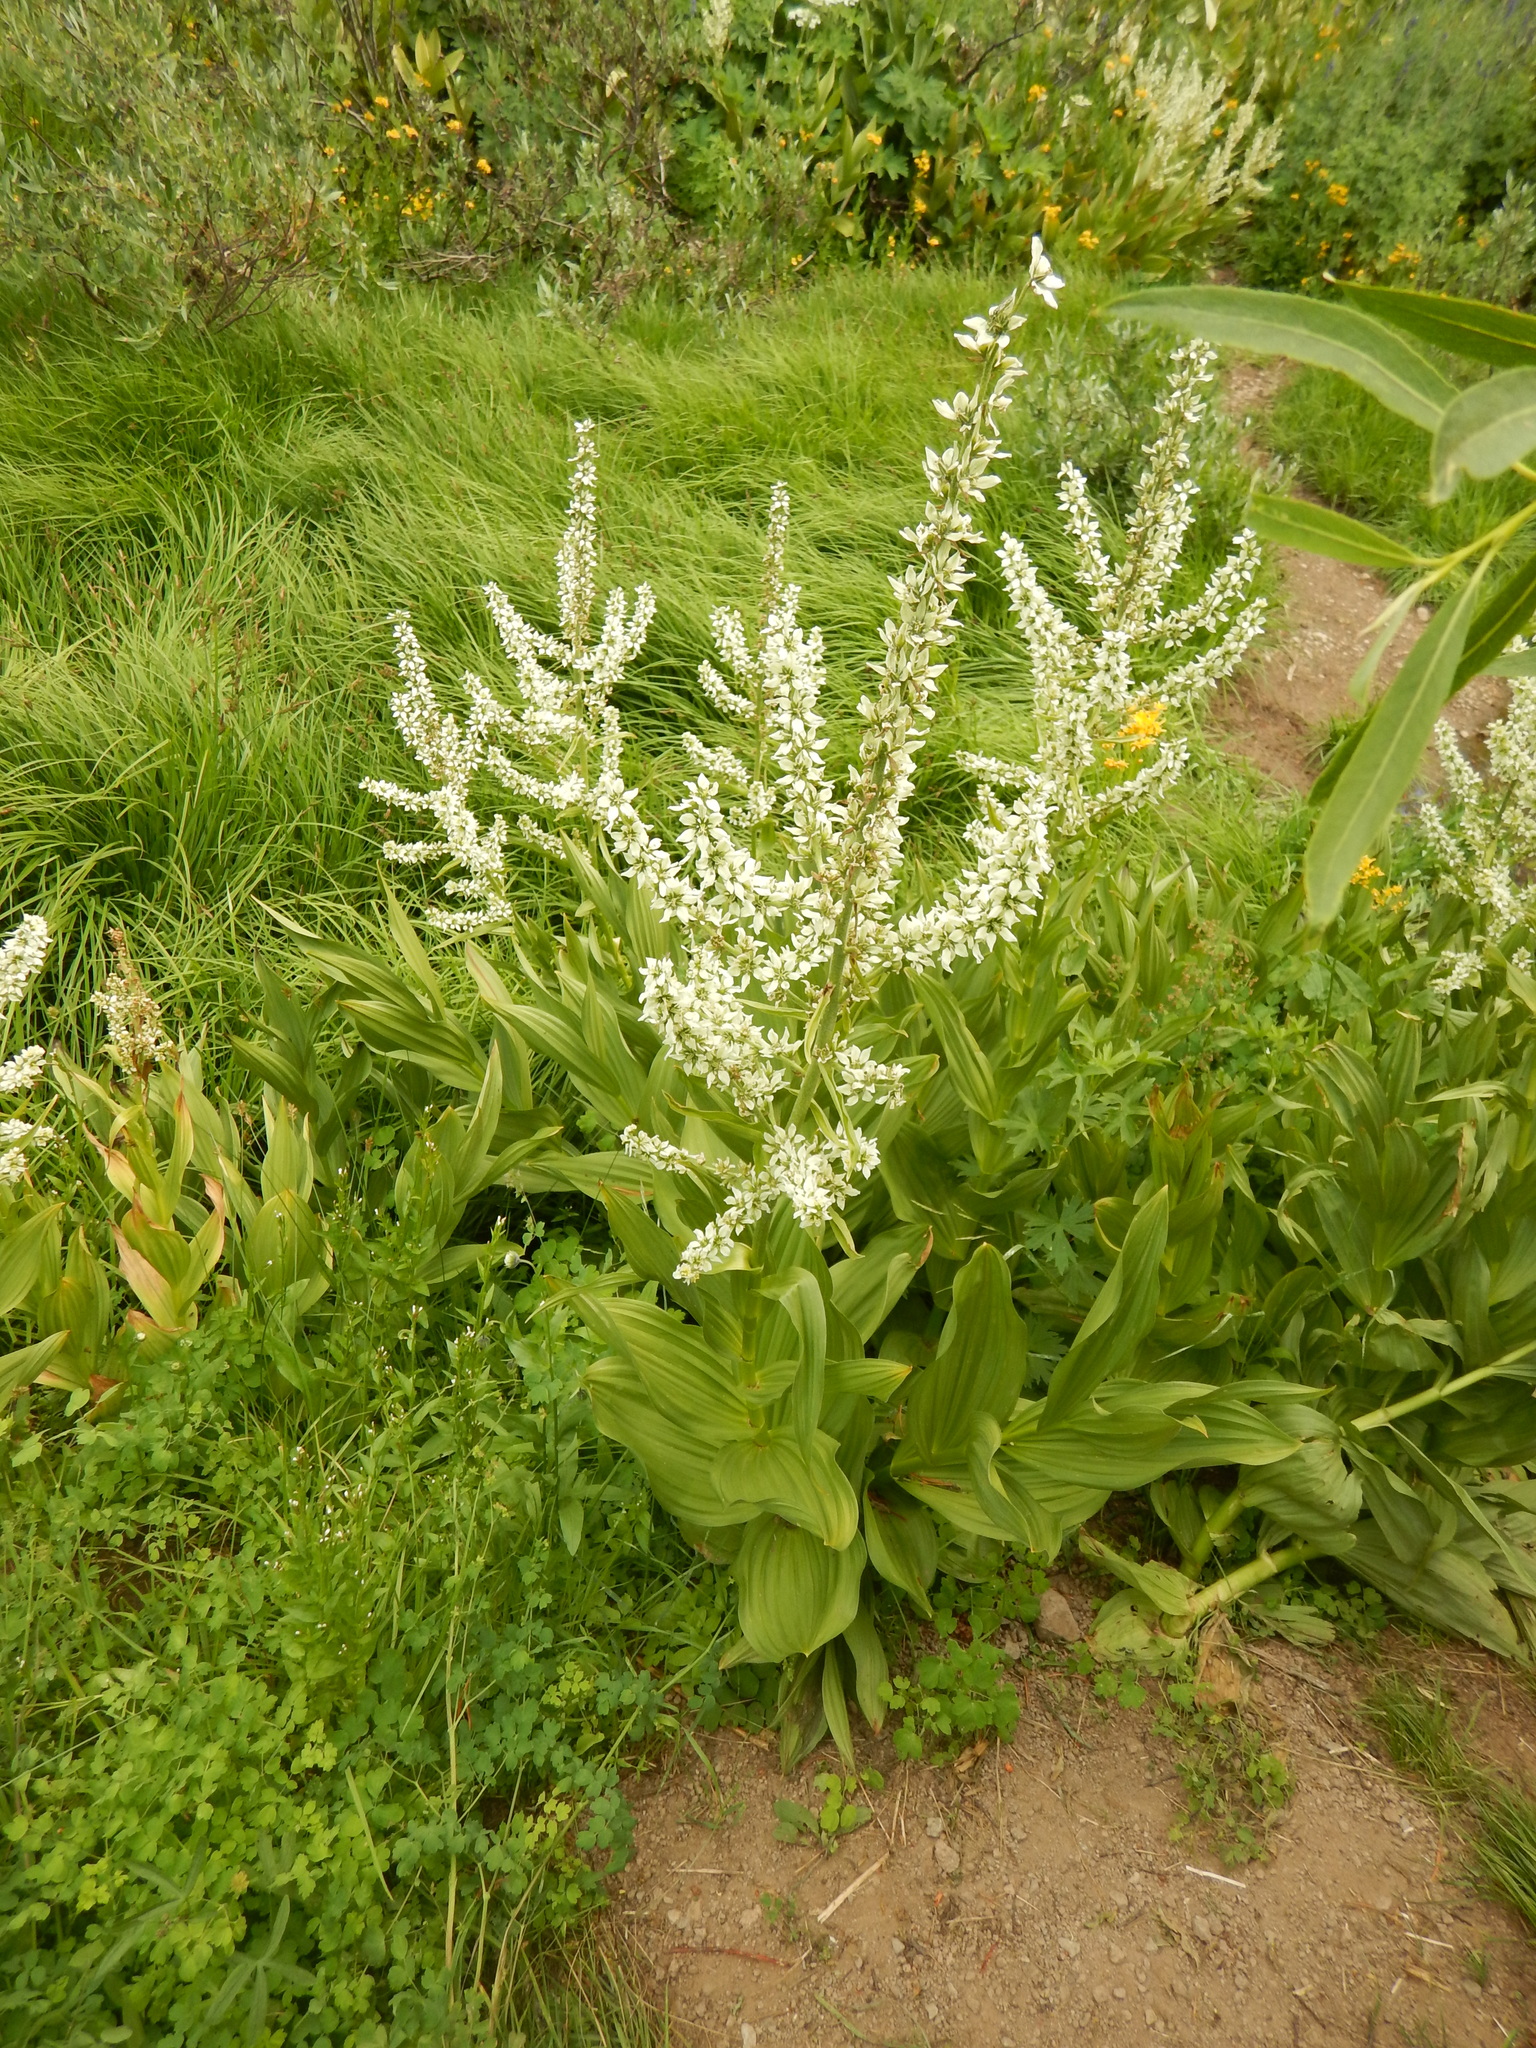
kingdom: Plantae
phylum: Tracheophyta
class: Liliopsida
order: Liliales
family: Melanthiaceae
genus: Veratrum
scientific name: Veratrum californicum
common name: California veratrum
